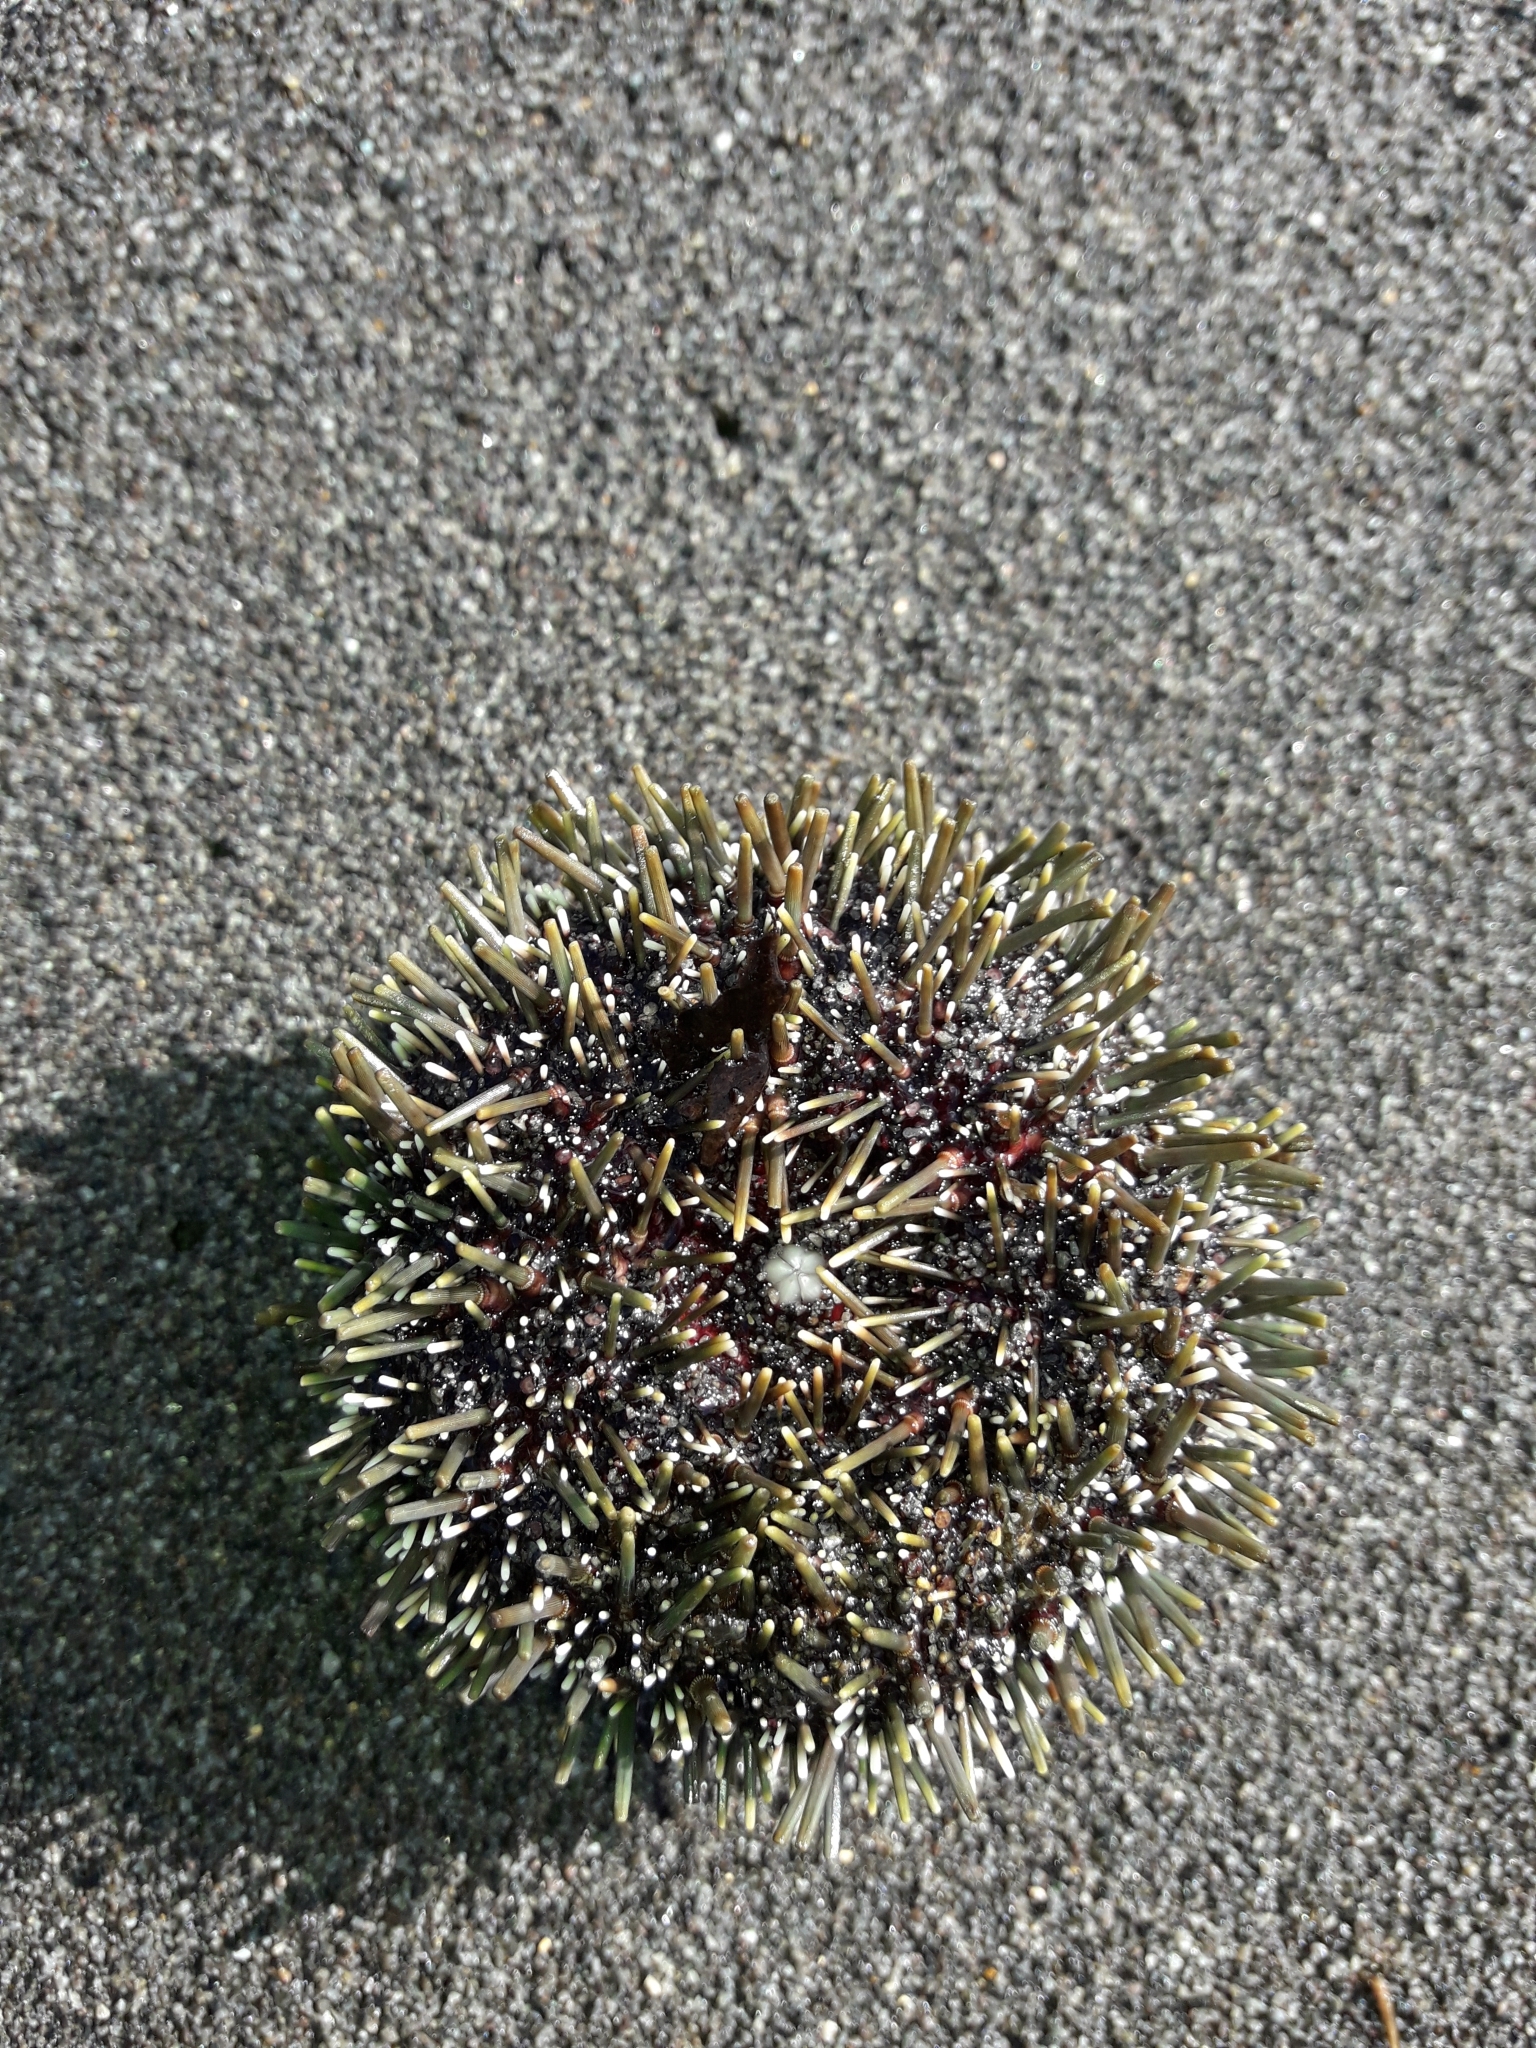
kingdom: Animalia
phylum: Echinodermata
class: Echinoidea
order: Camarodonta
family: Echinometridae
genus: Evechinus
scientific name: Evechinus chloroticus
